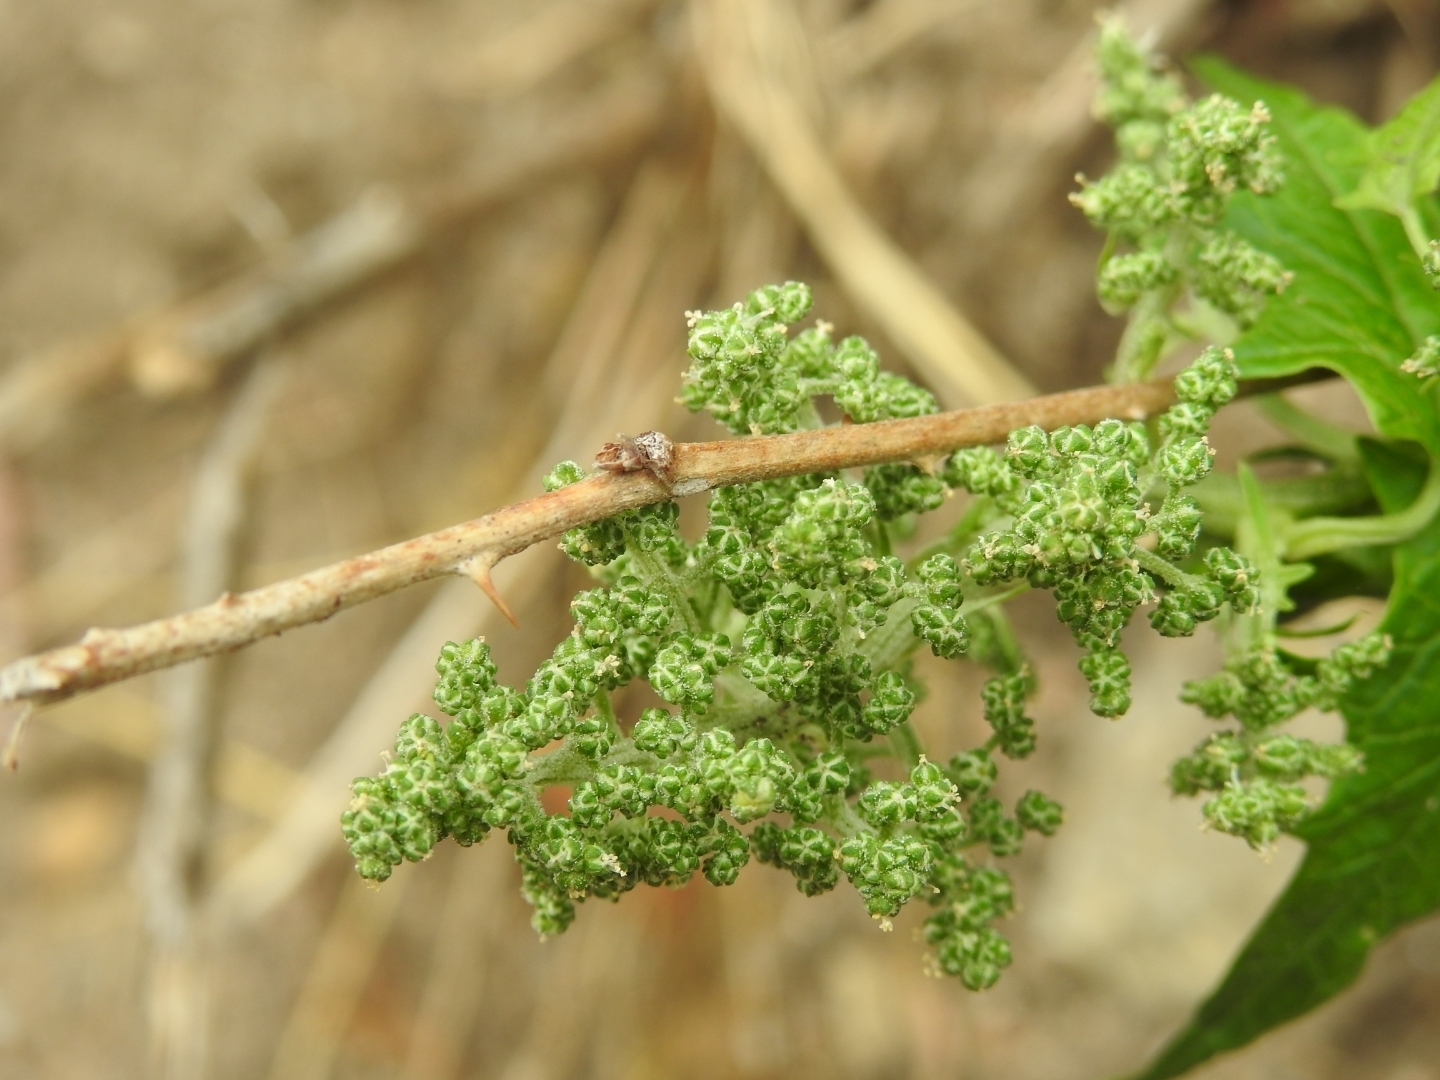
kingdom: Plantae
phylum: Tracheophyta
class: Magnoliopsida
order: Caryophyllales
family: Amaranthaceae
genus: Chenopodiastrum
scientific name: Chenopodiastrum hybridum
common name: Mapleleaf goosefoot
